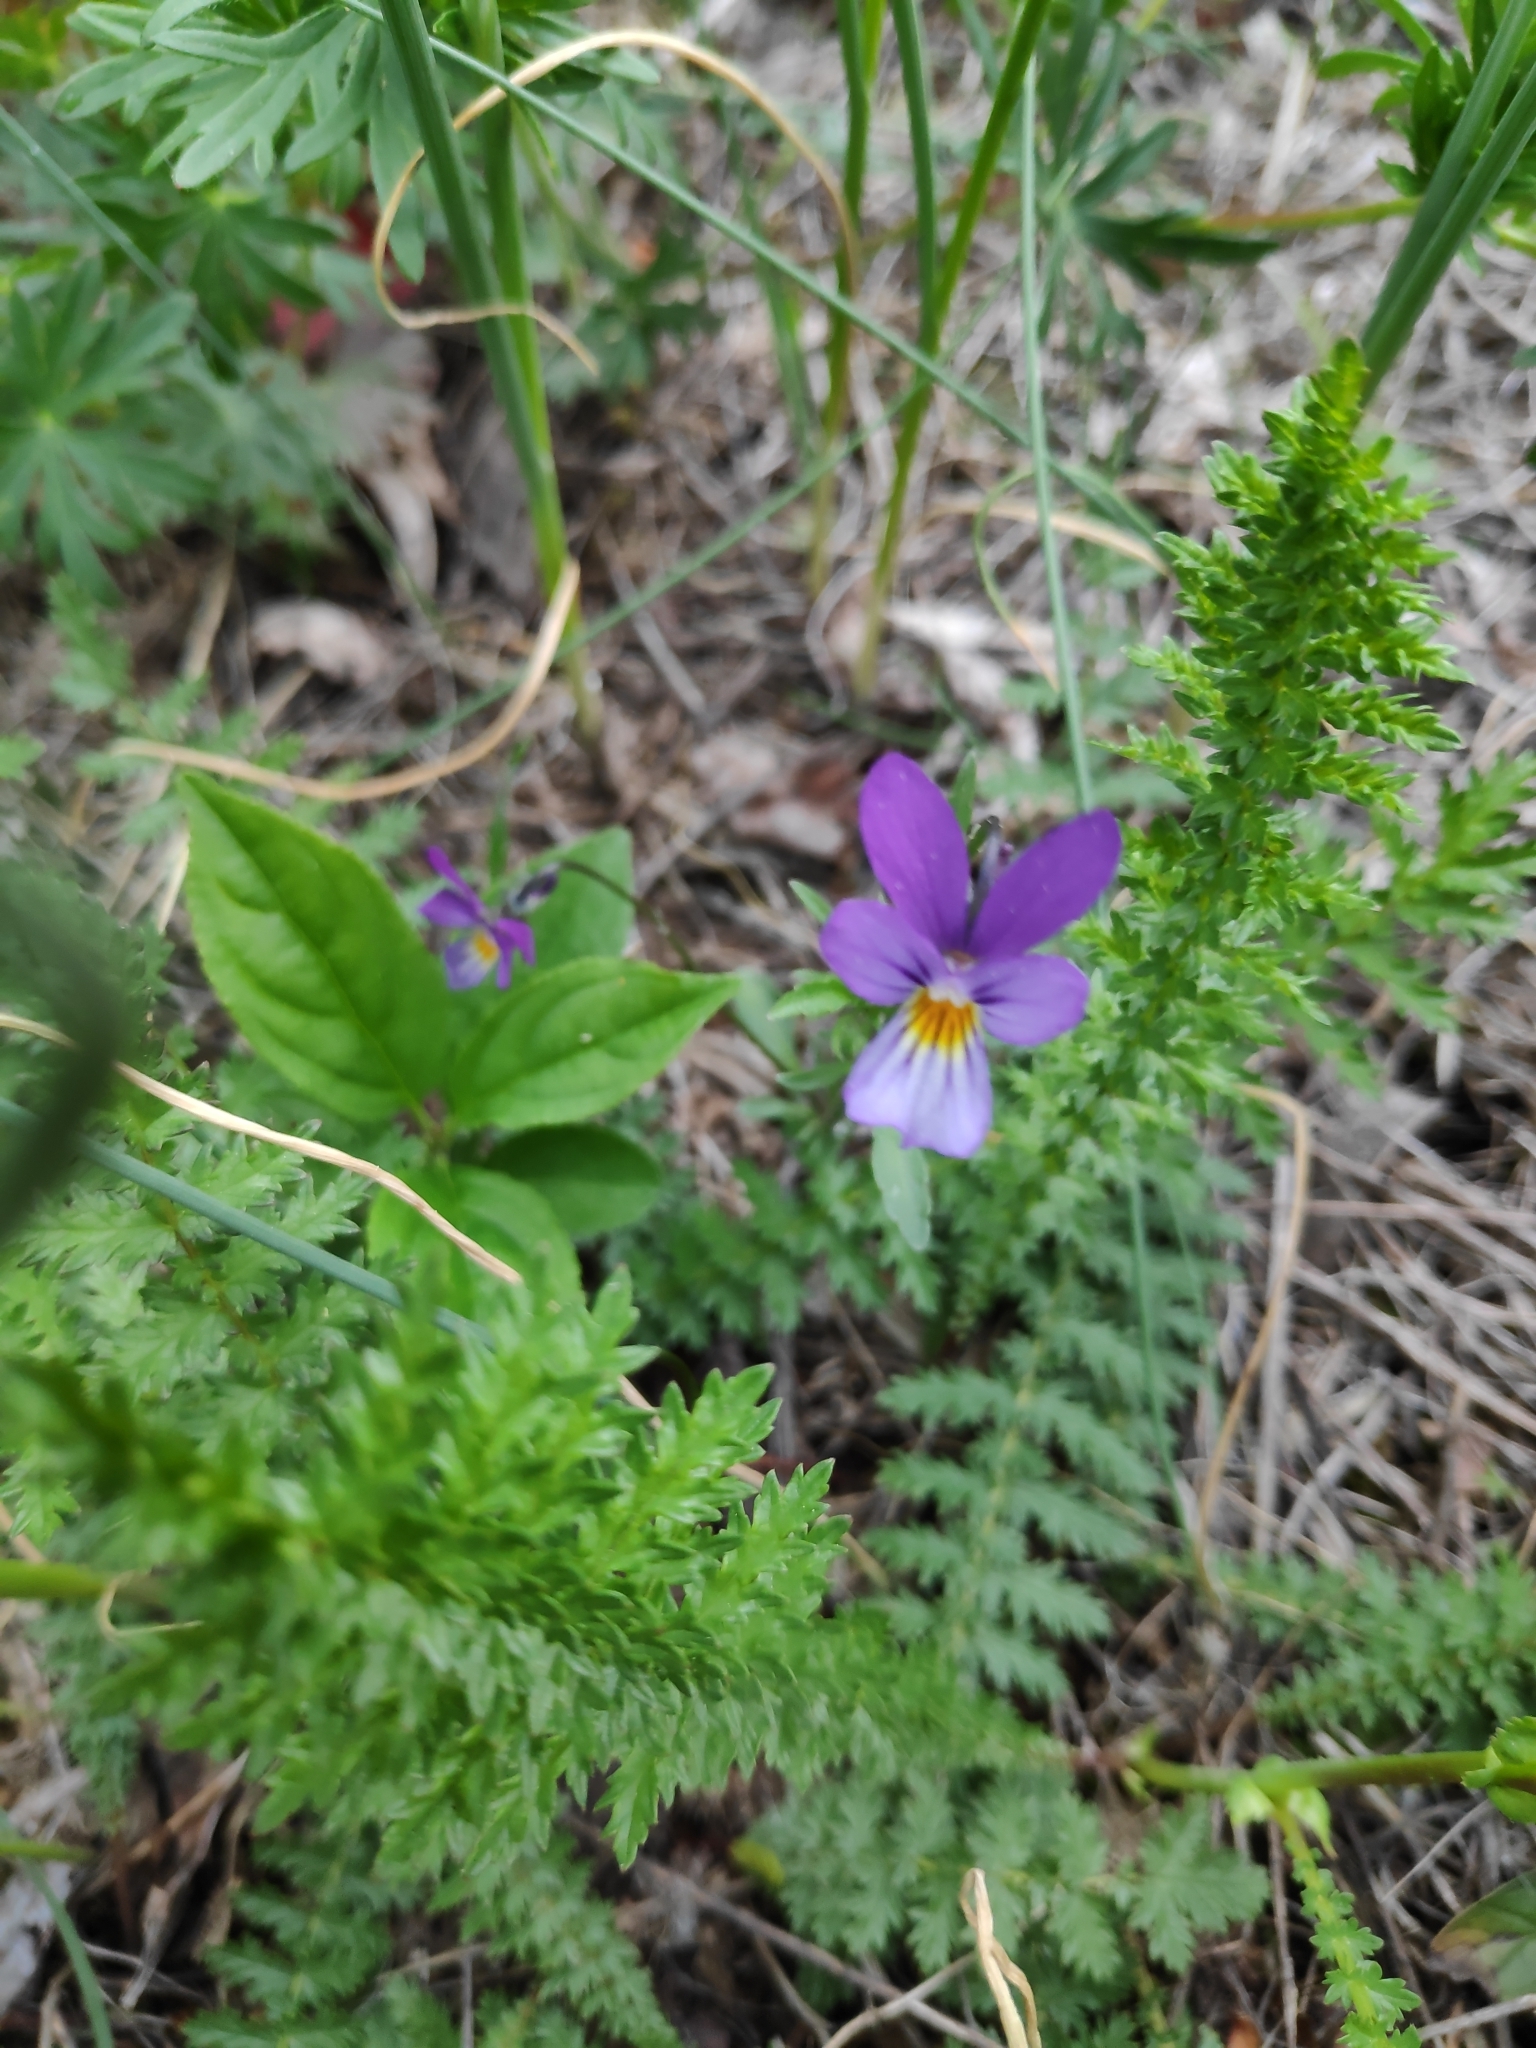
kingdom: Plantae
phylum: Tracheophyta
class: Magnoliopsida
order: Malpighiales
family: Violaceae
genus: Viola
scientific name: Viola tricolor
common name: Pansy
